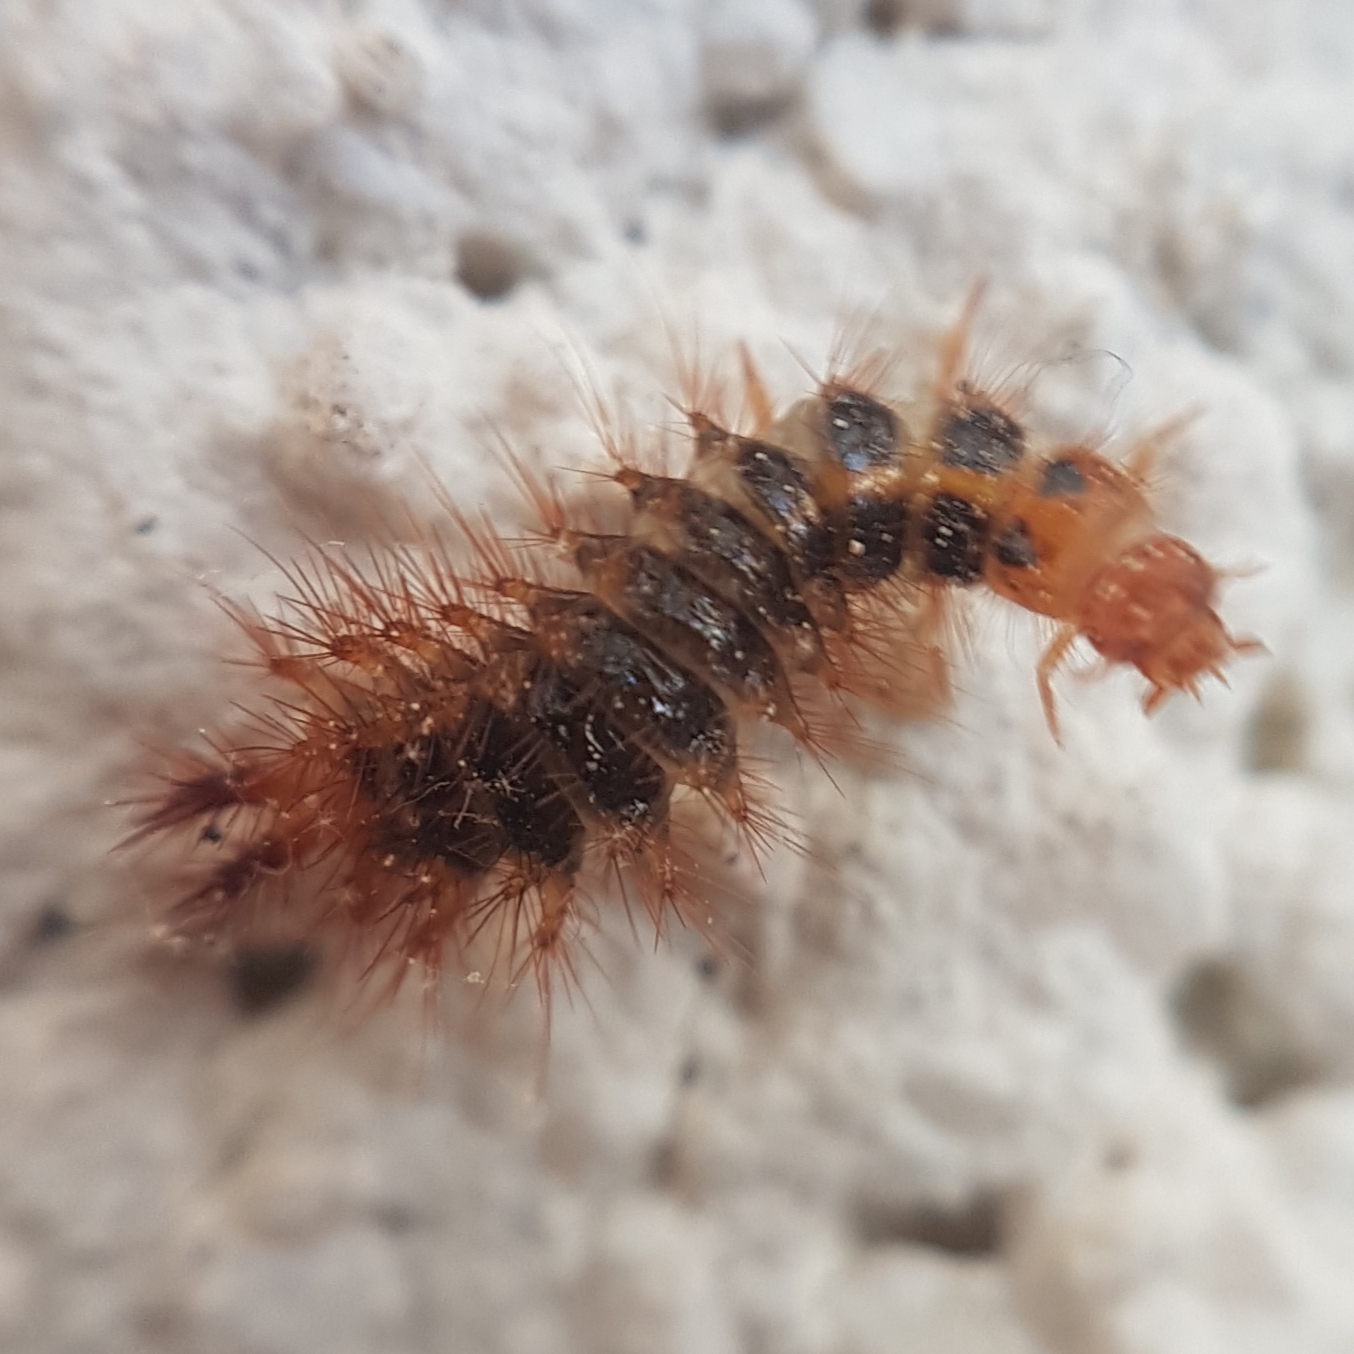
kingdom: Animalia
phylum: Arthropoda
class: Insecta
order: Coleoptera
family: Drilidae
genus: Drilus
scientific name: Drilus flavescens
